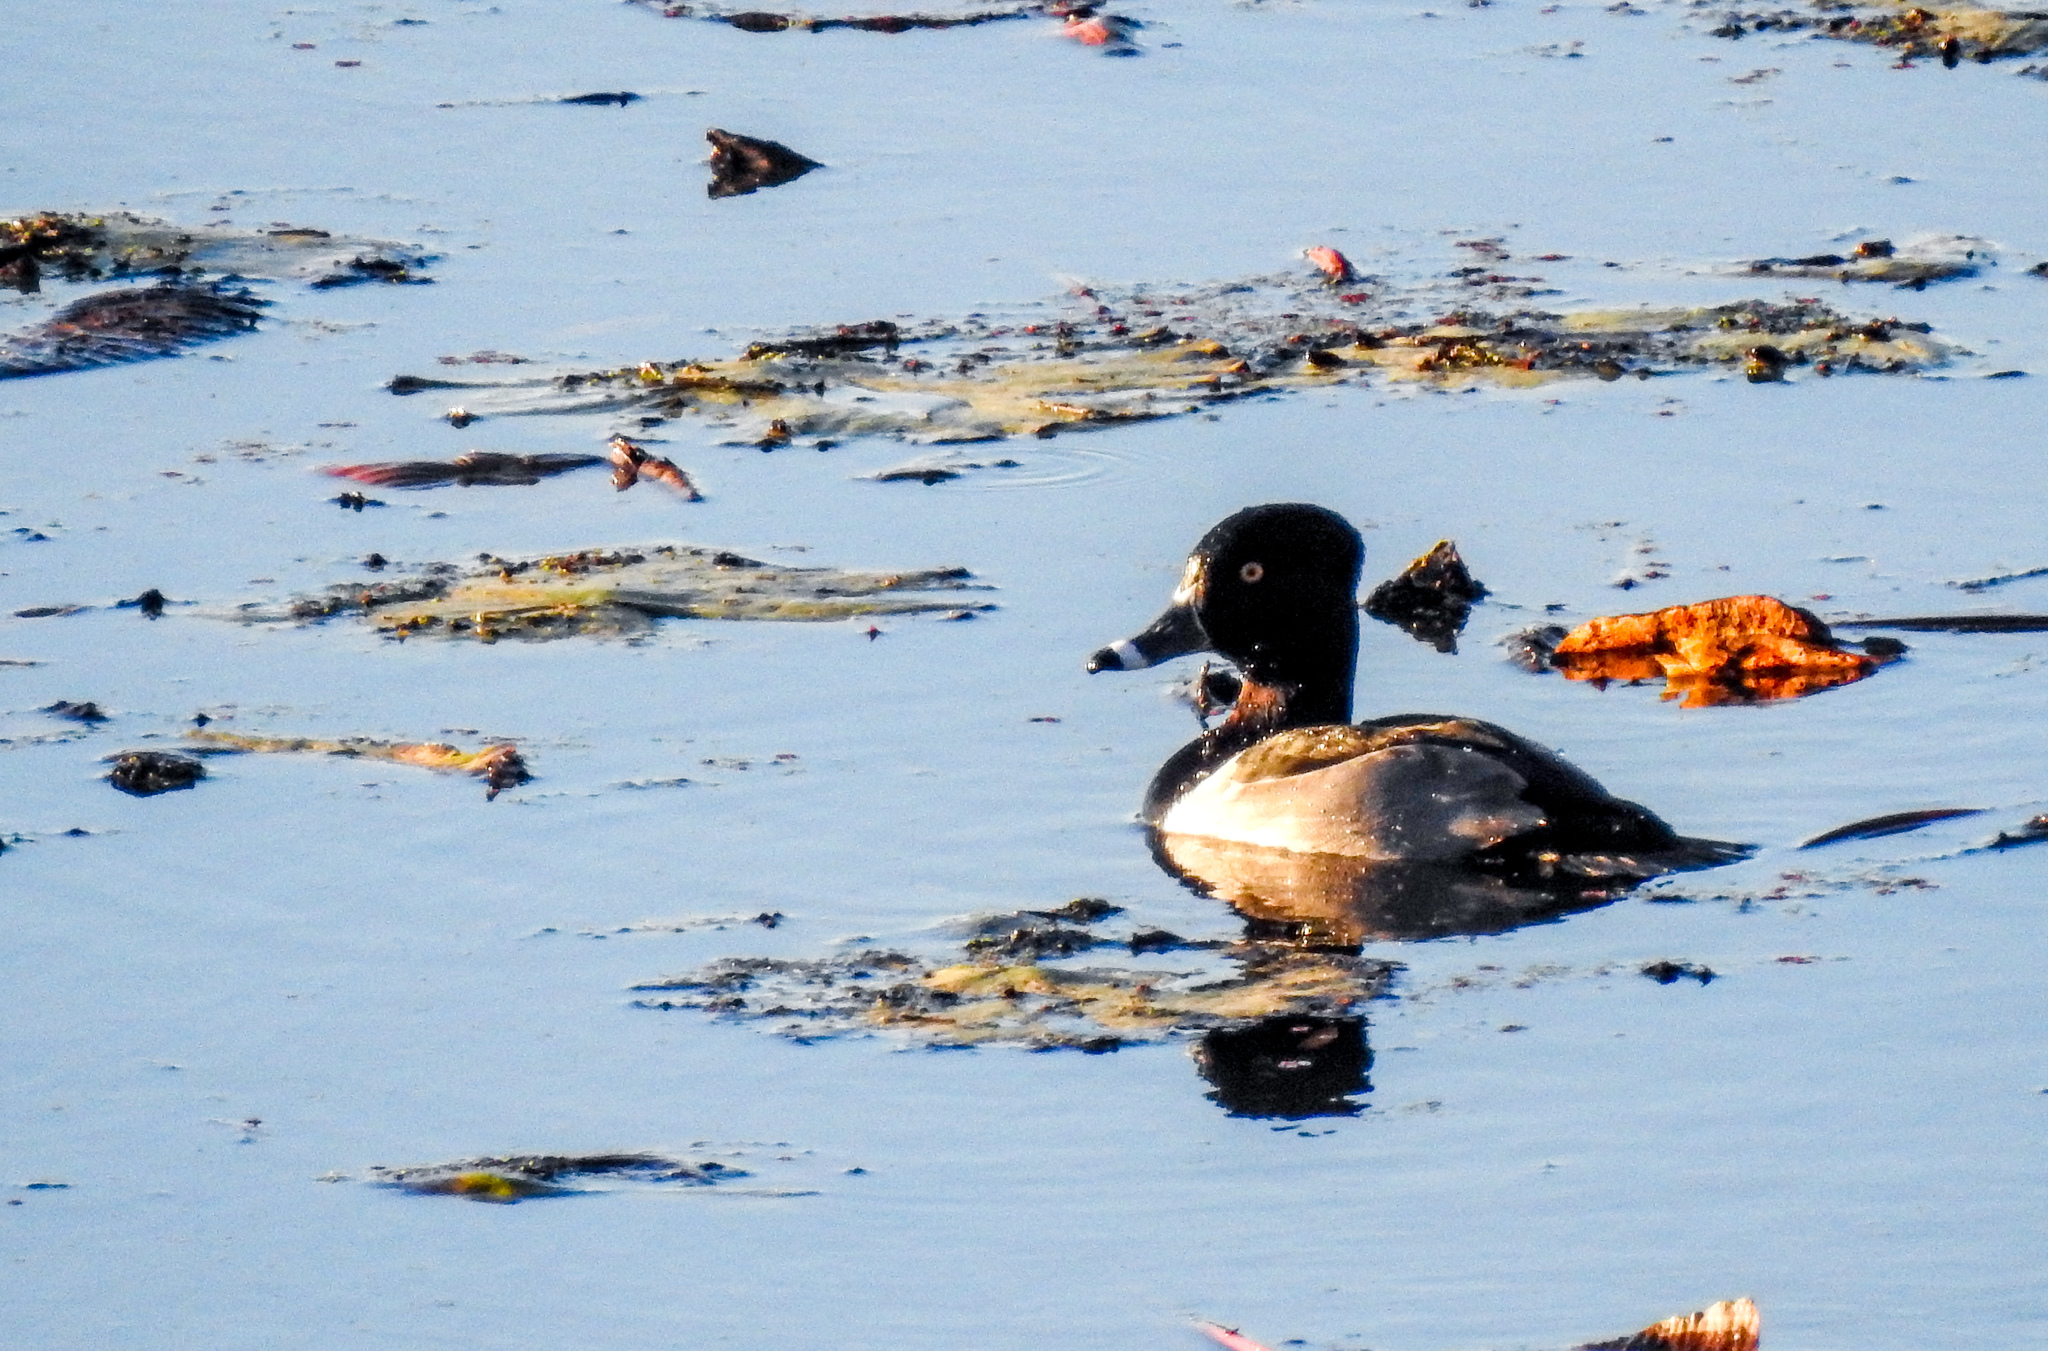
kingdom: Animalia
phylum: Chordata
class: Aves
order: Anseriformes
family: Anatidae
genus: Aythya
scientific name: Aythya collaris
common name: Ring-necked duck
